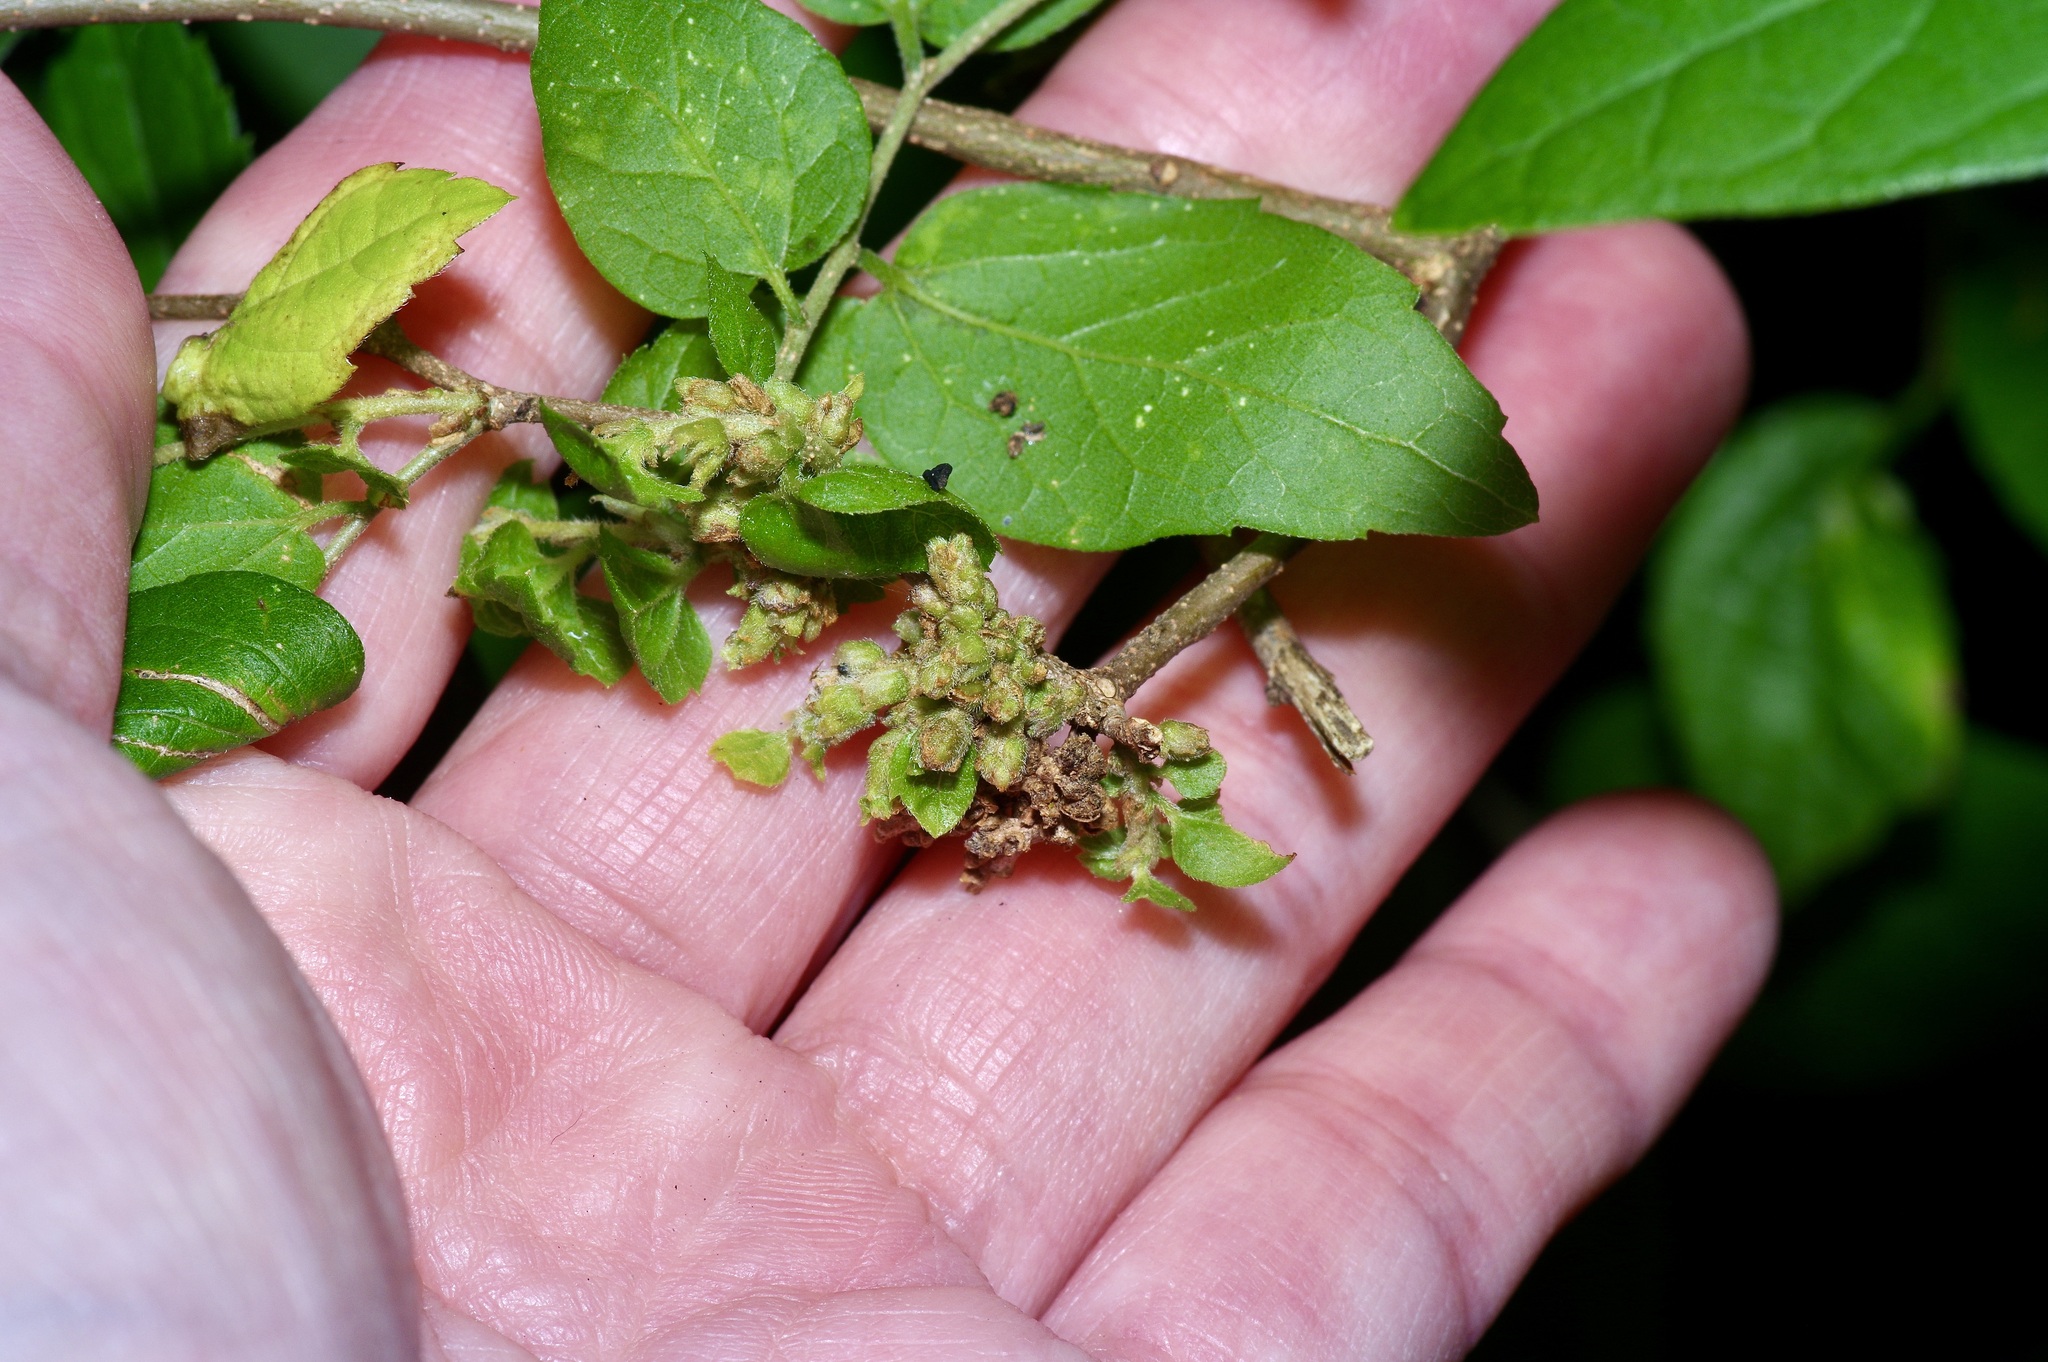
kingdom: Animalia
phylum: Arthropoda
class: Arachnida
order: Trombidiformes
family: Eriophyidae
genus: Aceria
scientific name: Aceria
